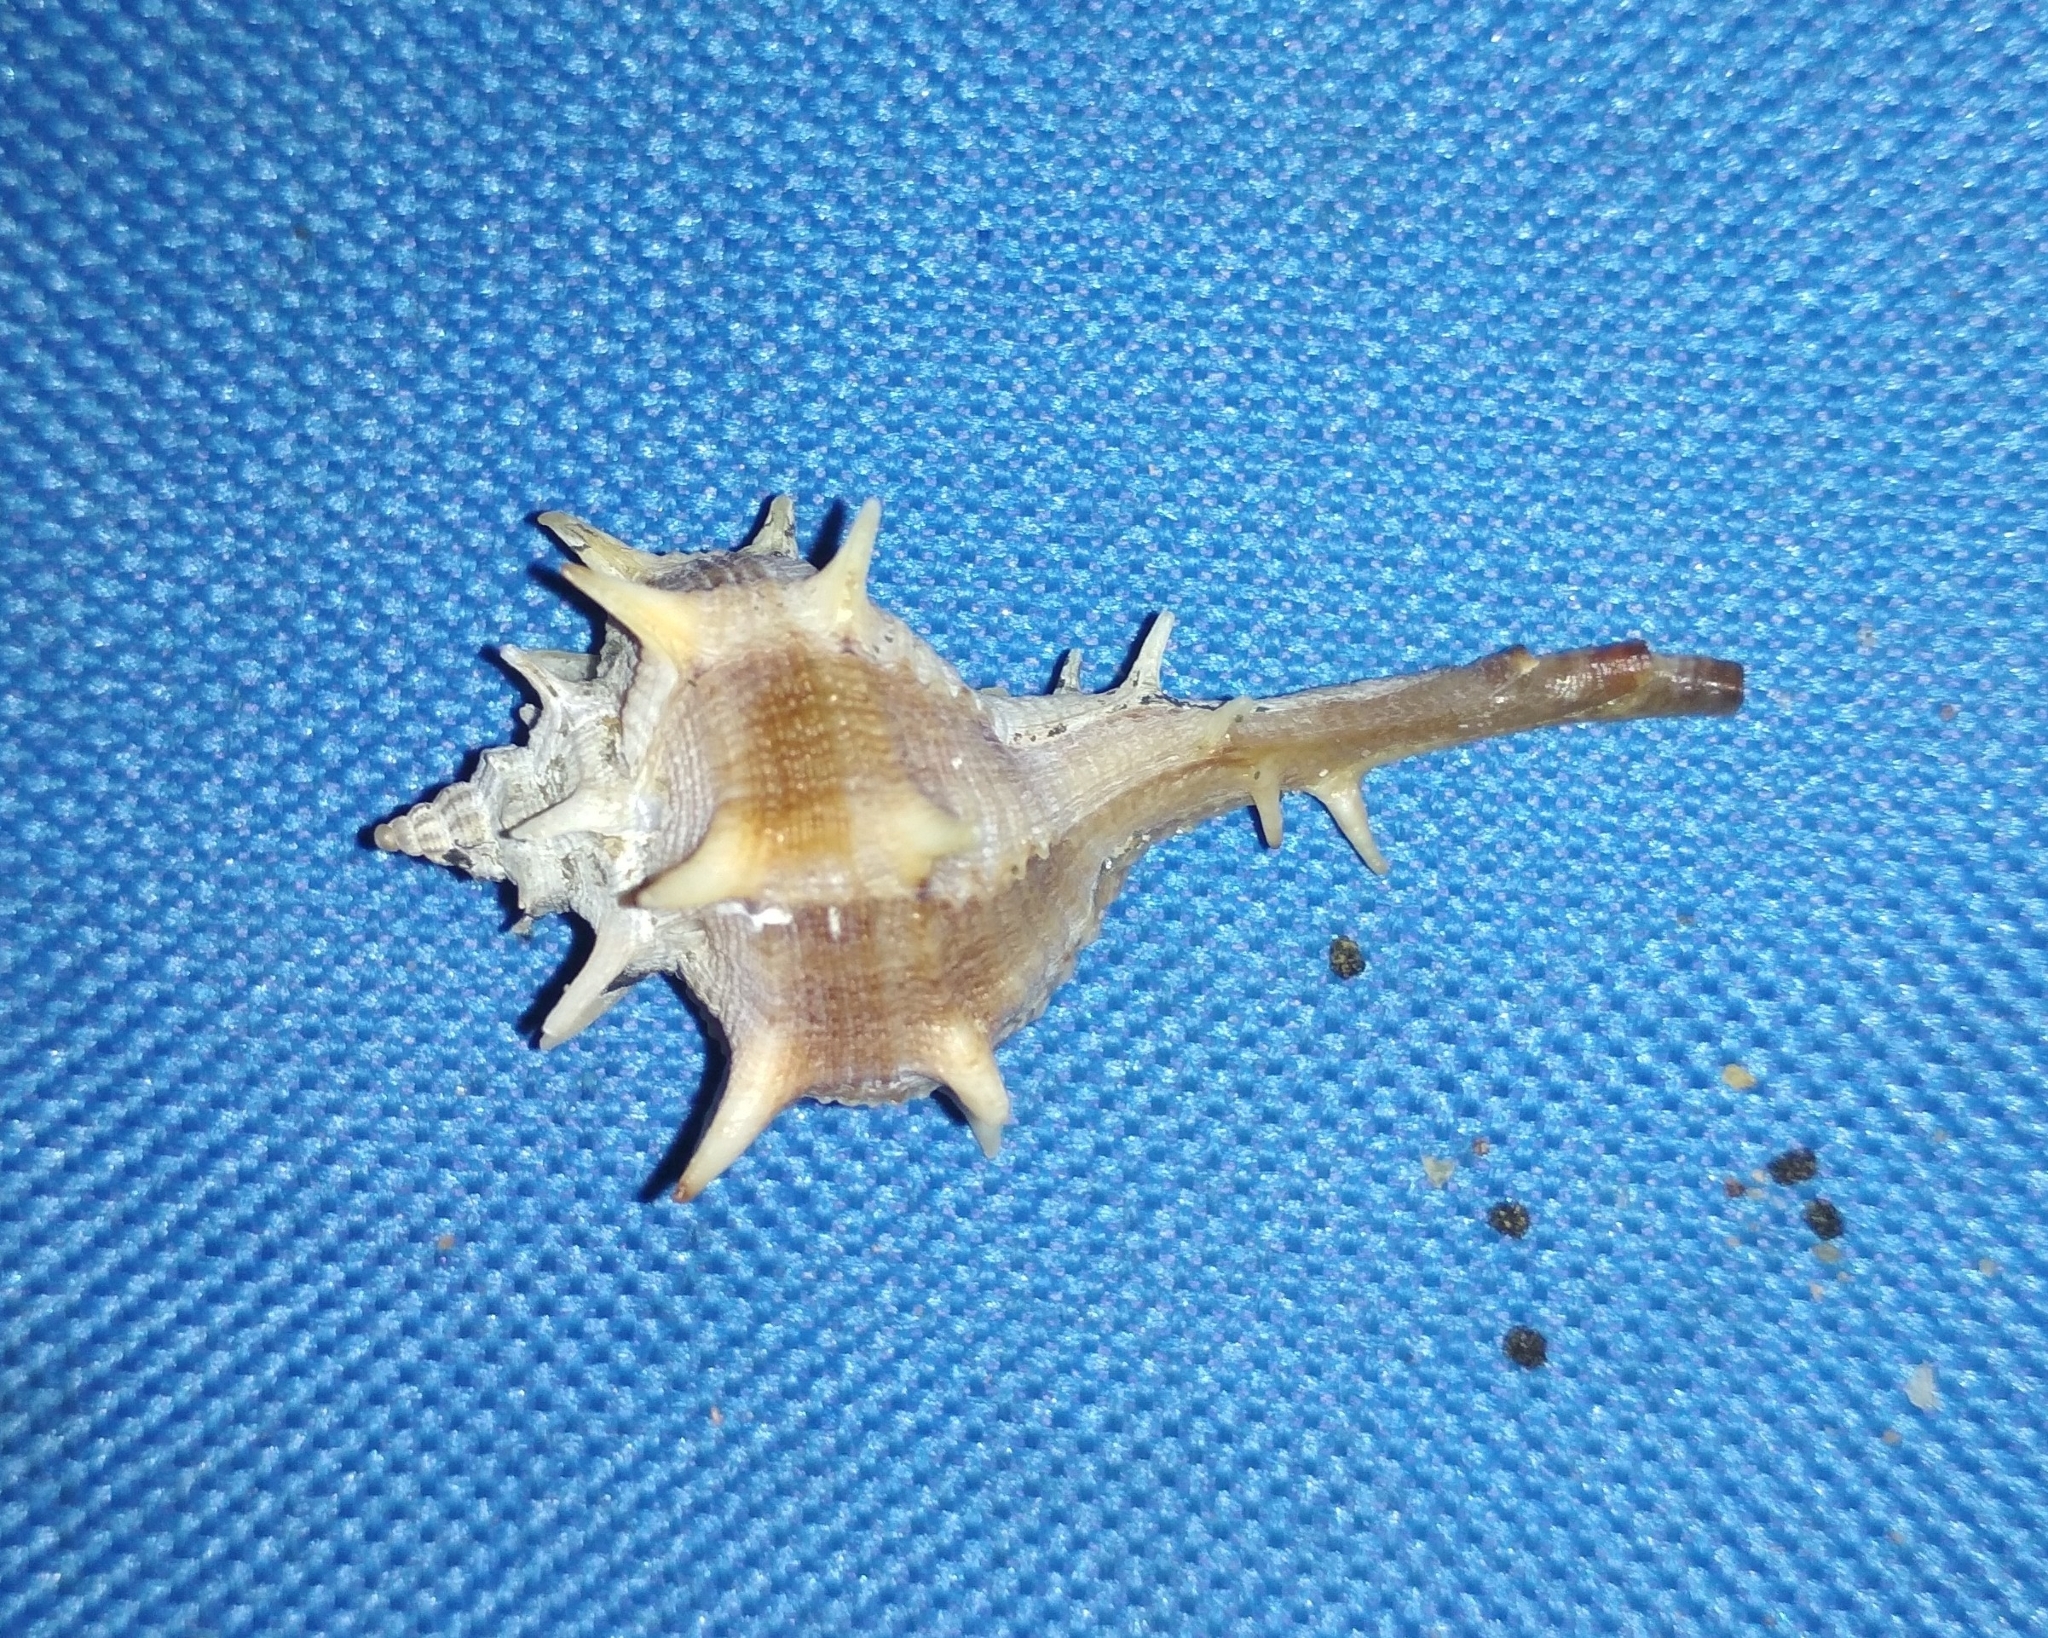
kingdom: Animalia
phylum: Mollusca
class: Gastropoda
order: Neogastropoda
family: Muricidae
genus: Bolinus
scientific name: Bolinus brandaris
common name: Dye murex
